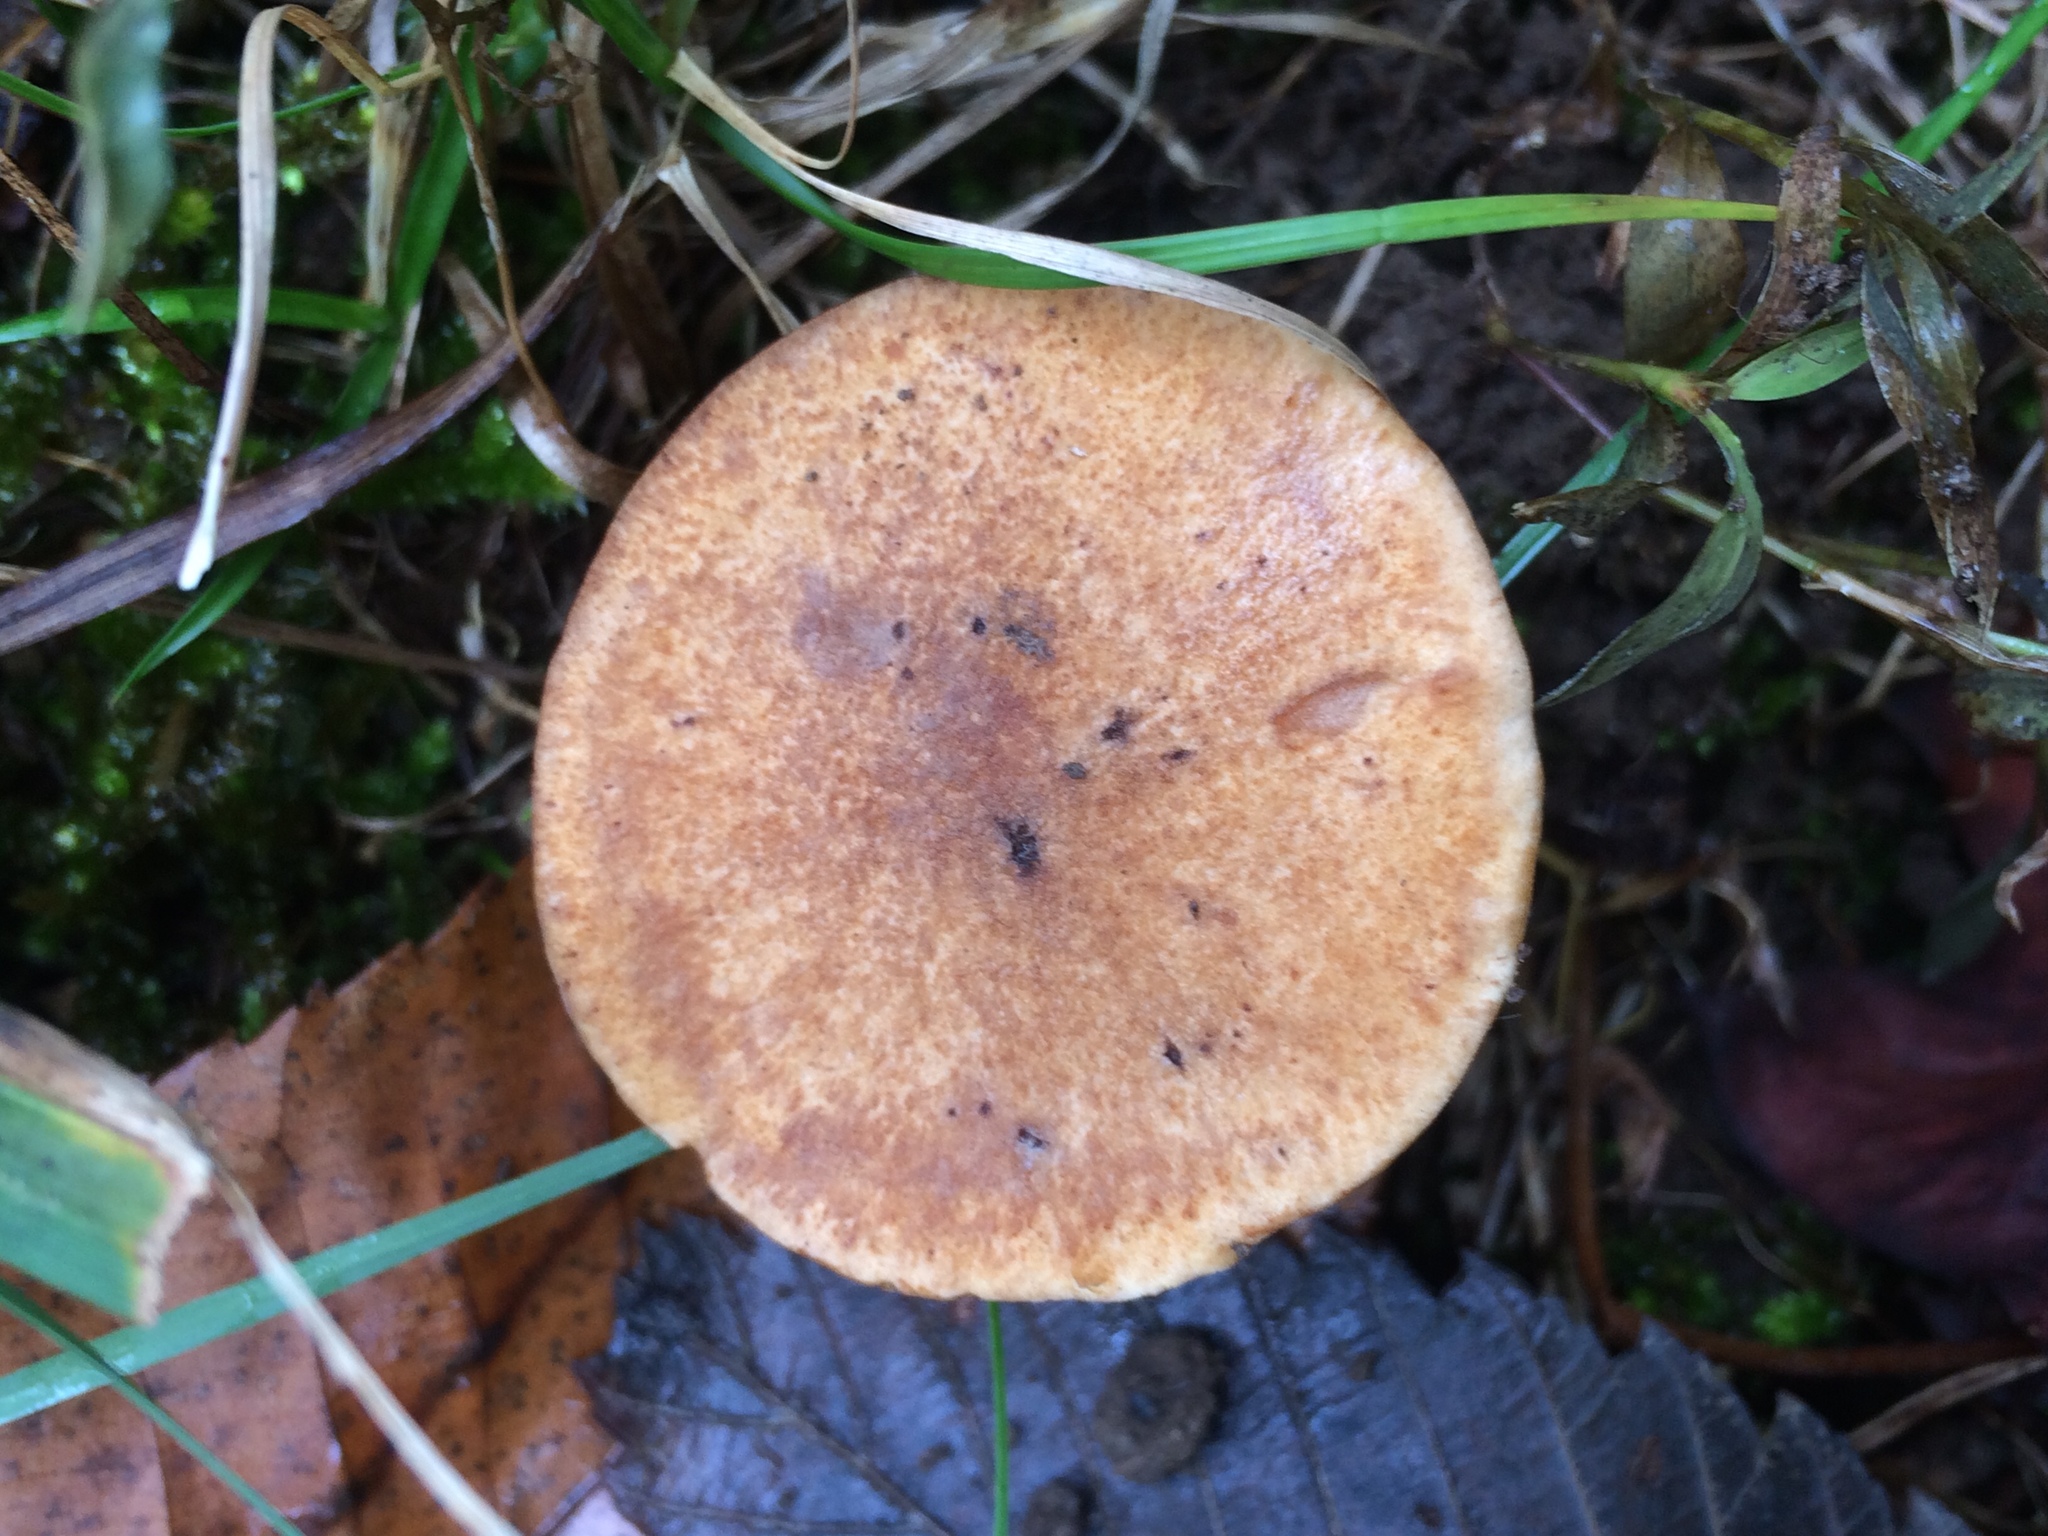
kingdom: Fungi
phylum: Basidiomycota
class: Agaricomycetes
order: Polyporales
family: Polyporaceae
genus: Polyporus
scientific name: Polyporus radicatus
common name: Rooting polypore
